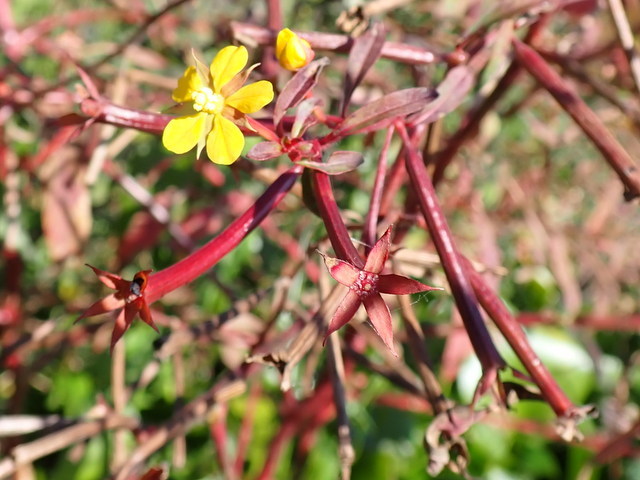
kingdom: Plantae
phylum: Tracheophyta
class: Magnoliopsida
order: Myrtales
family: Onagraceae
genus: Ludwigia
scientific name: Ludwigia leptocarpa
